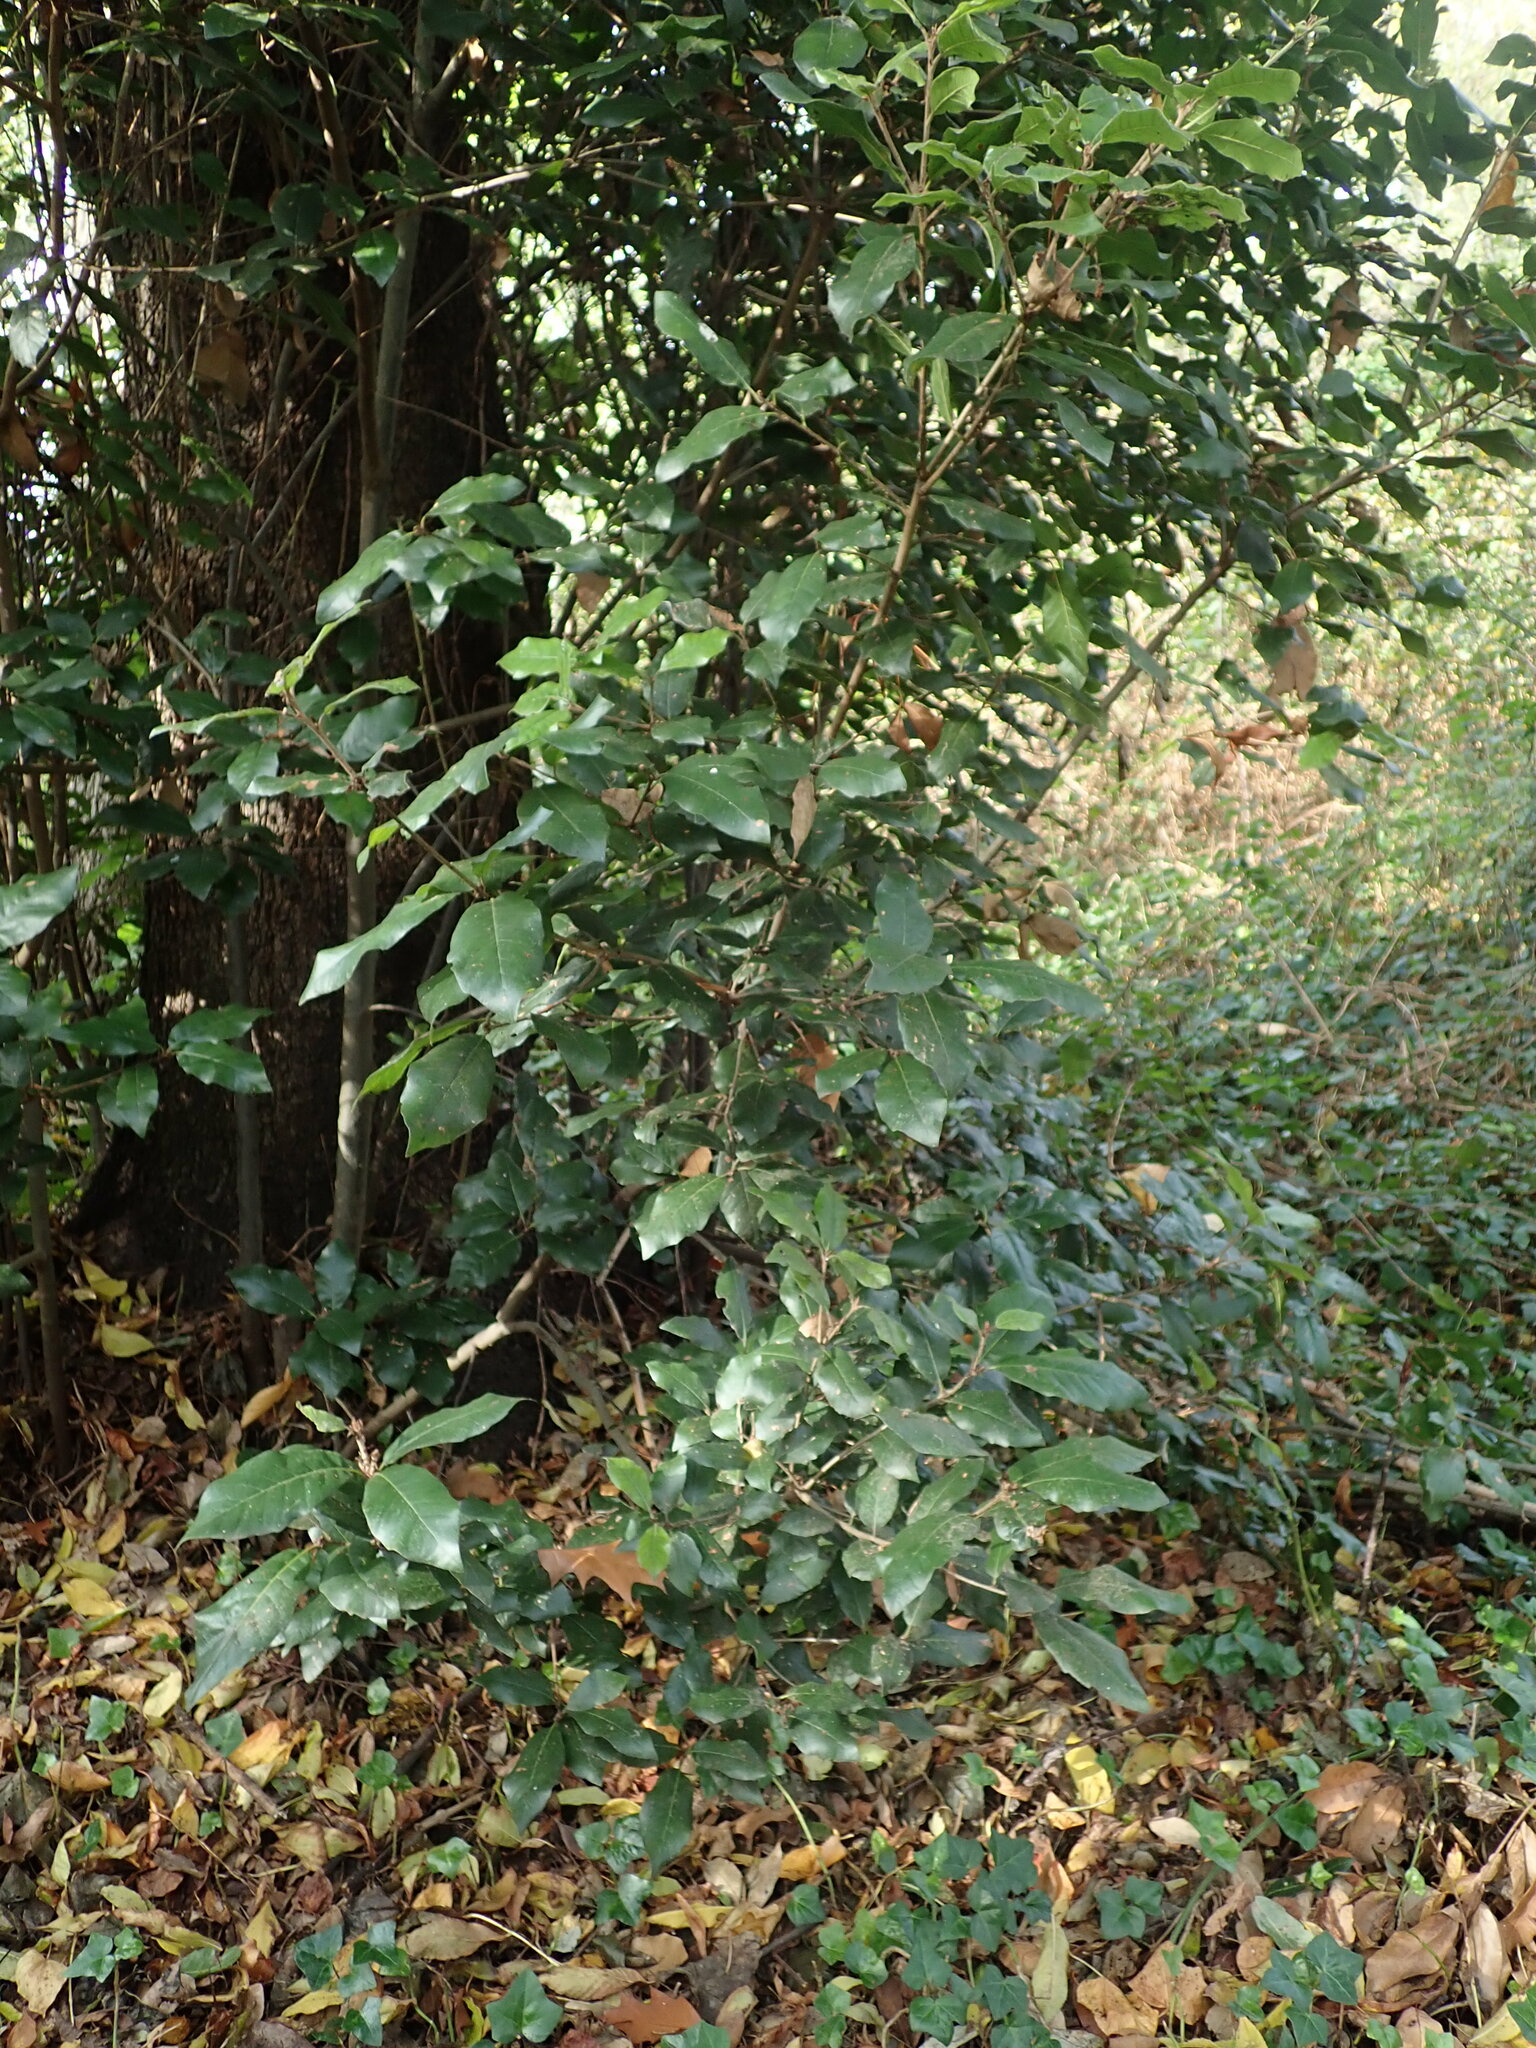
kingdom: Plantae
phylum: Tracheophyta
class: Magnoliopsida
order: Fagales
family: Fagaceae
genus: Quercus
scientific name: Quercus ilex
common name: Evergreen oak
